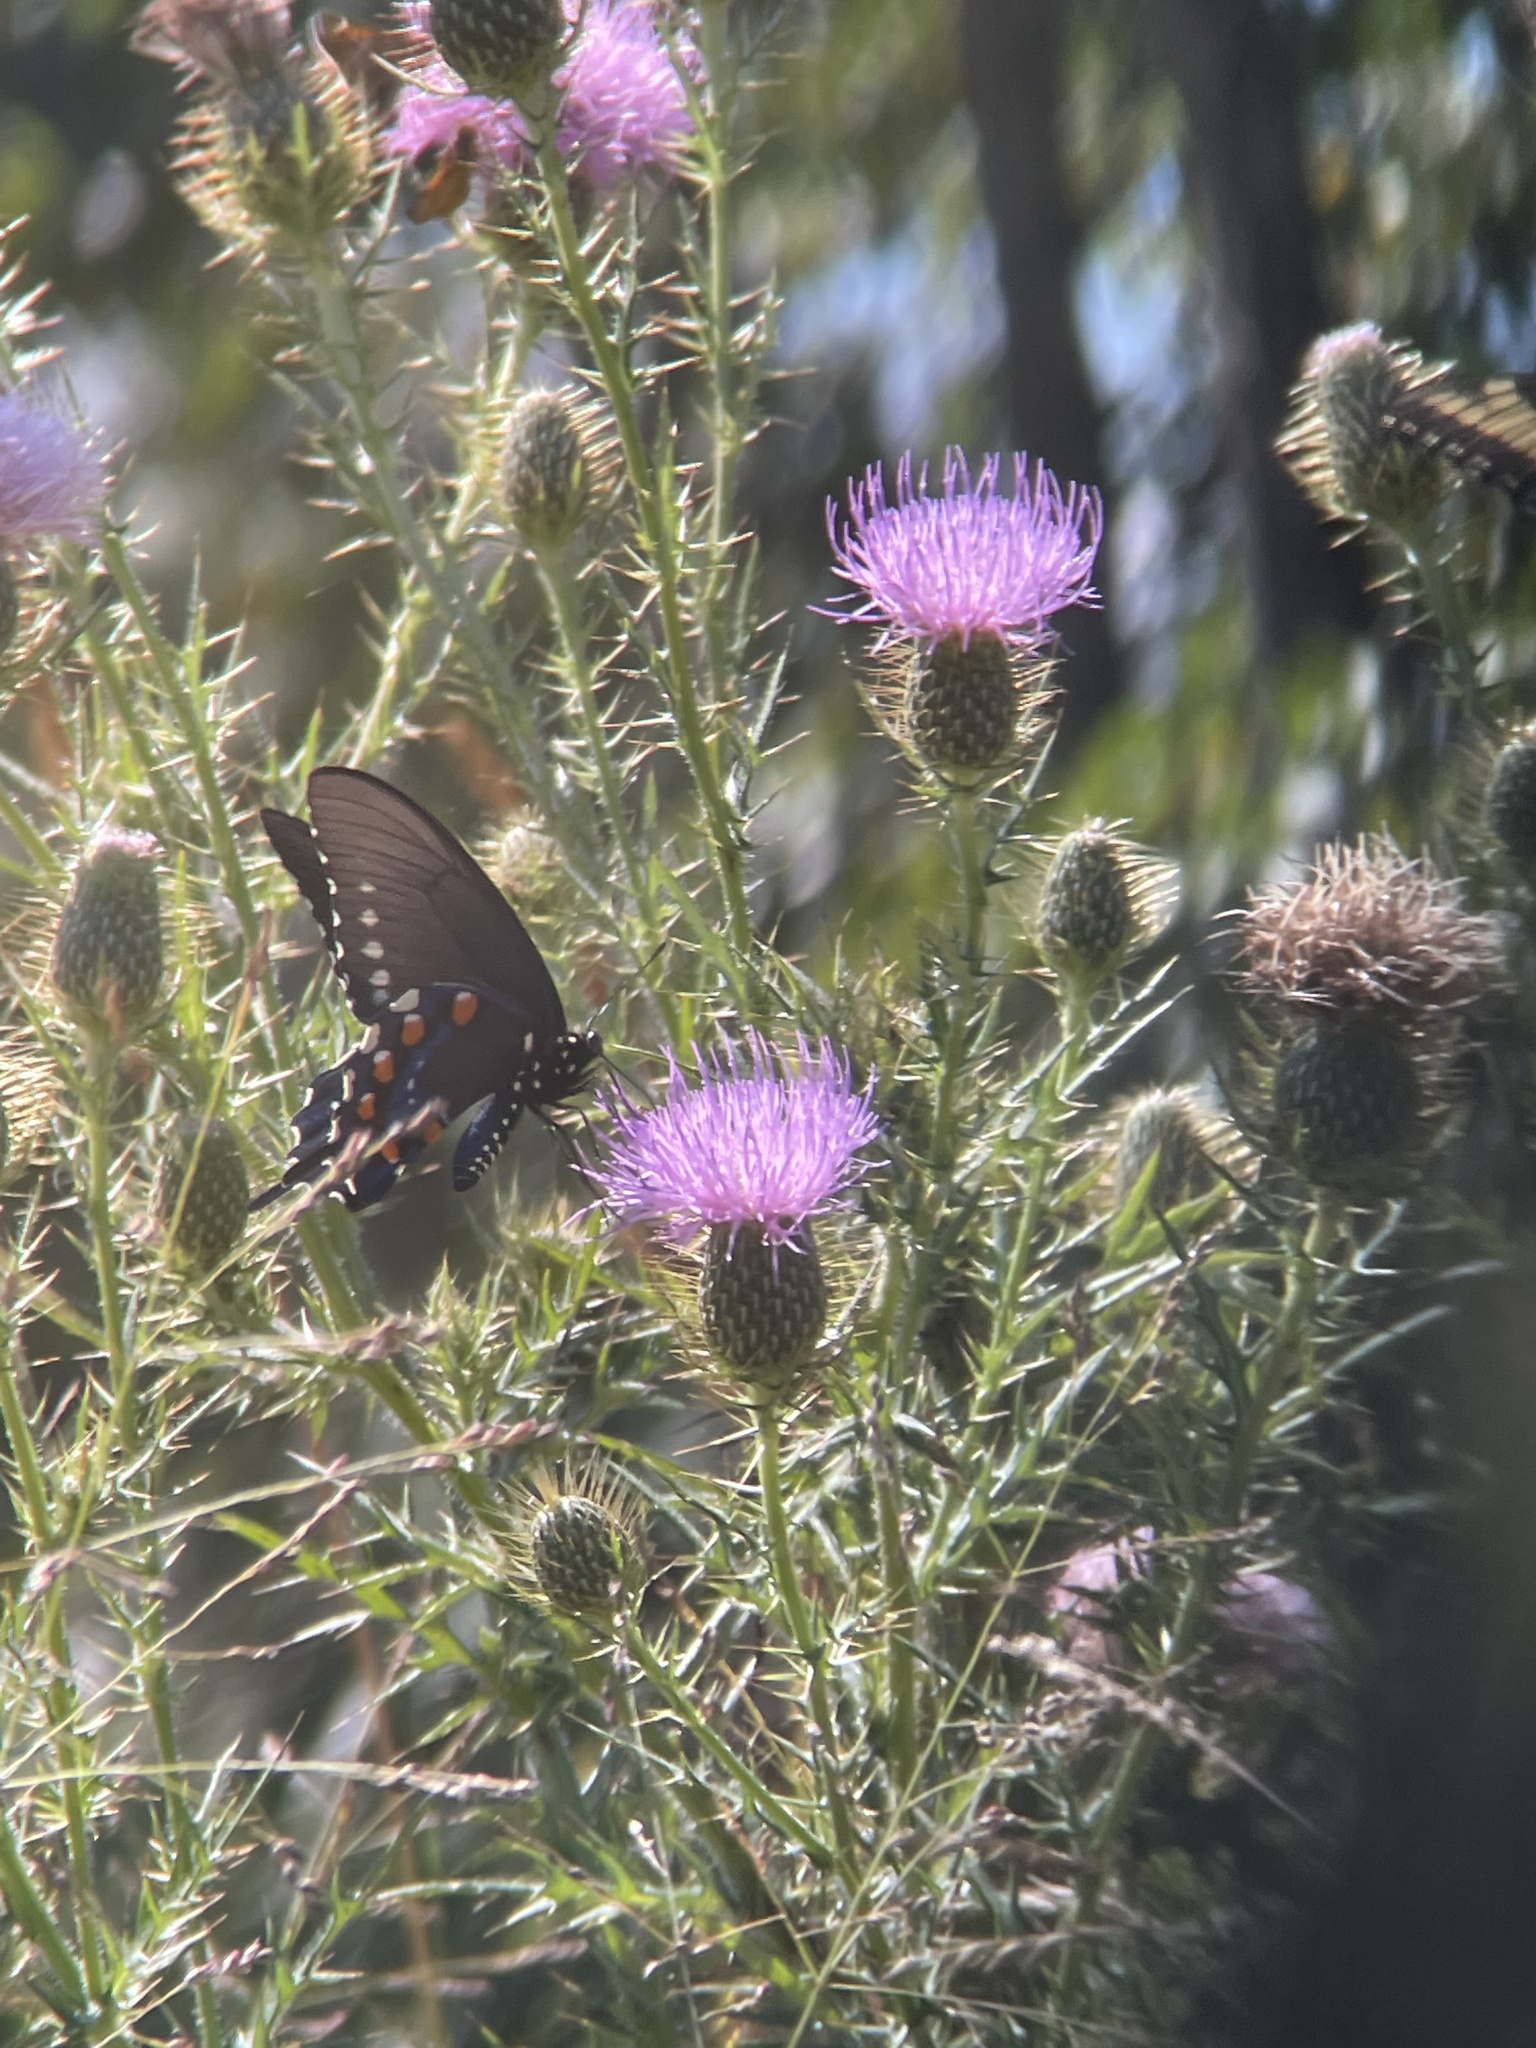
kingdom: Animalia
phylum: Arthropoda
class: Insecta
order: Lepidoptera
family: Papilionidae
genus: Battus
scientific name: Battus philenor
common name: Pipevine swallowtail
